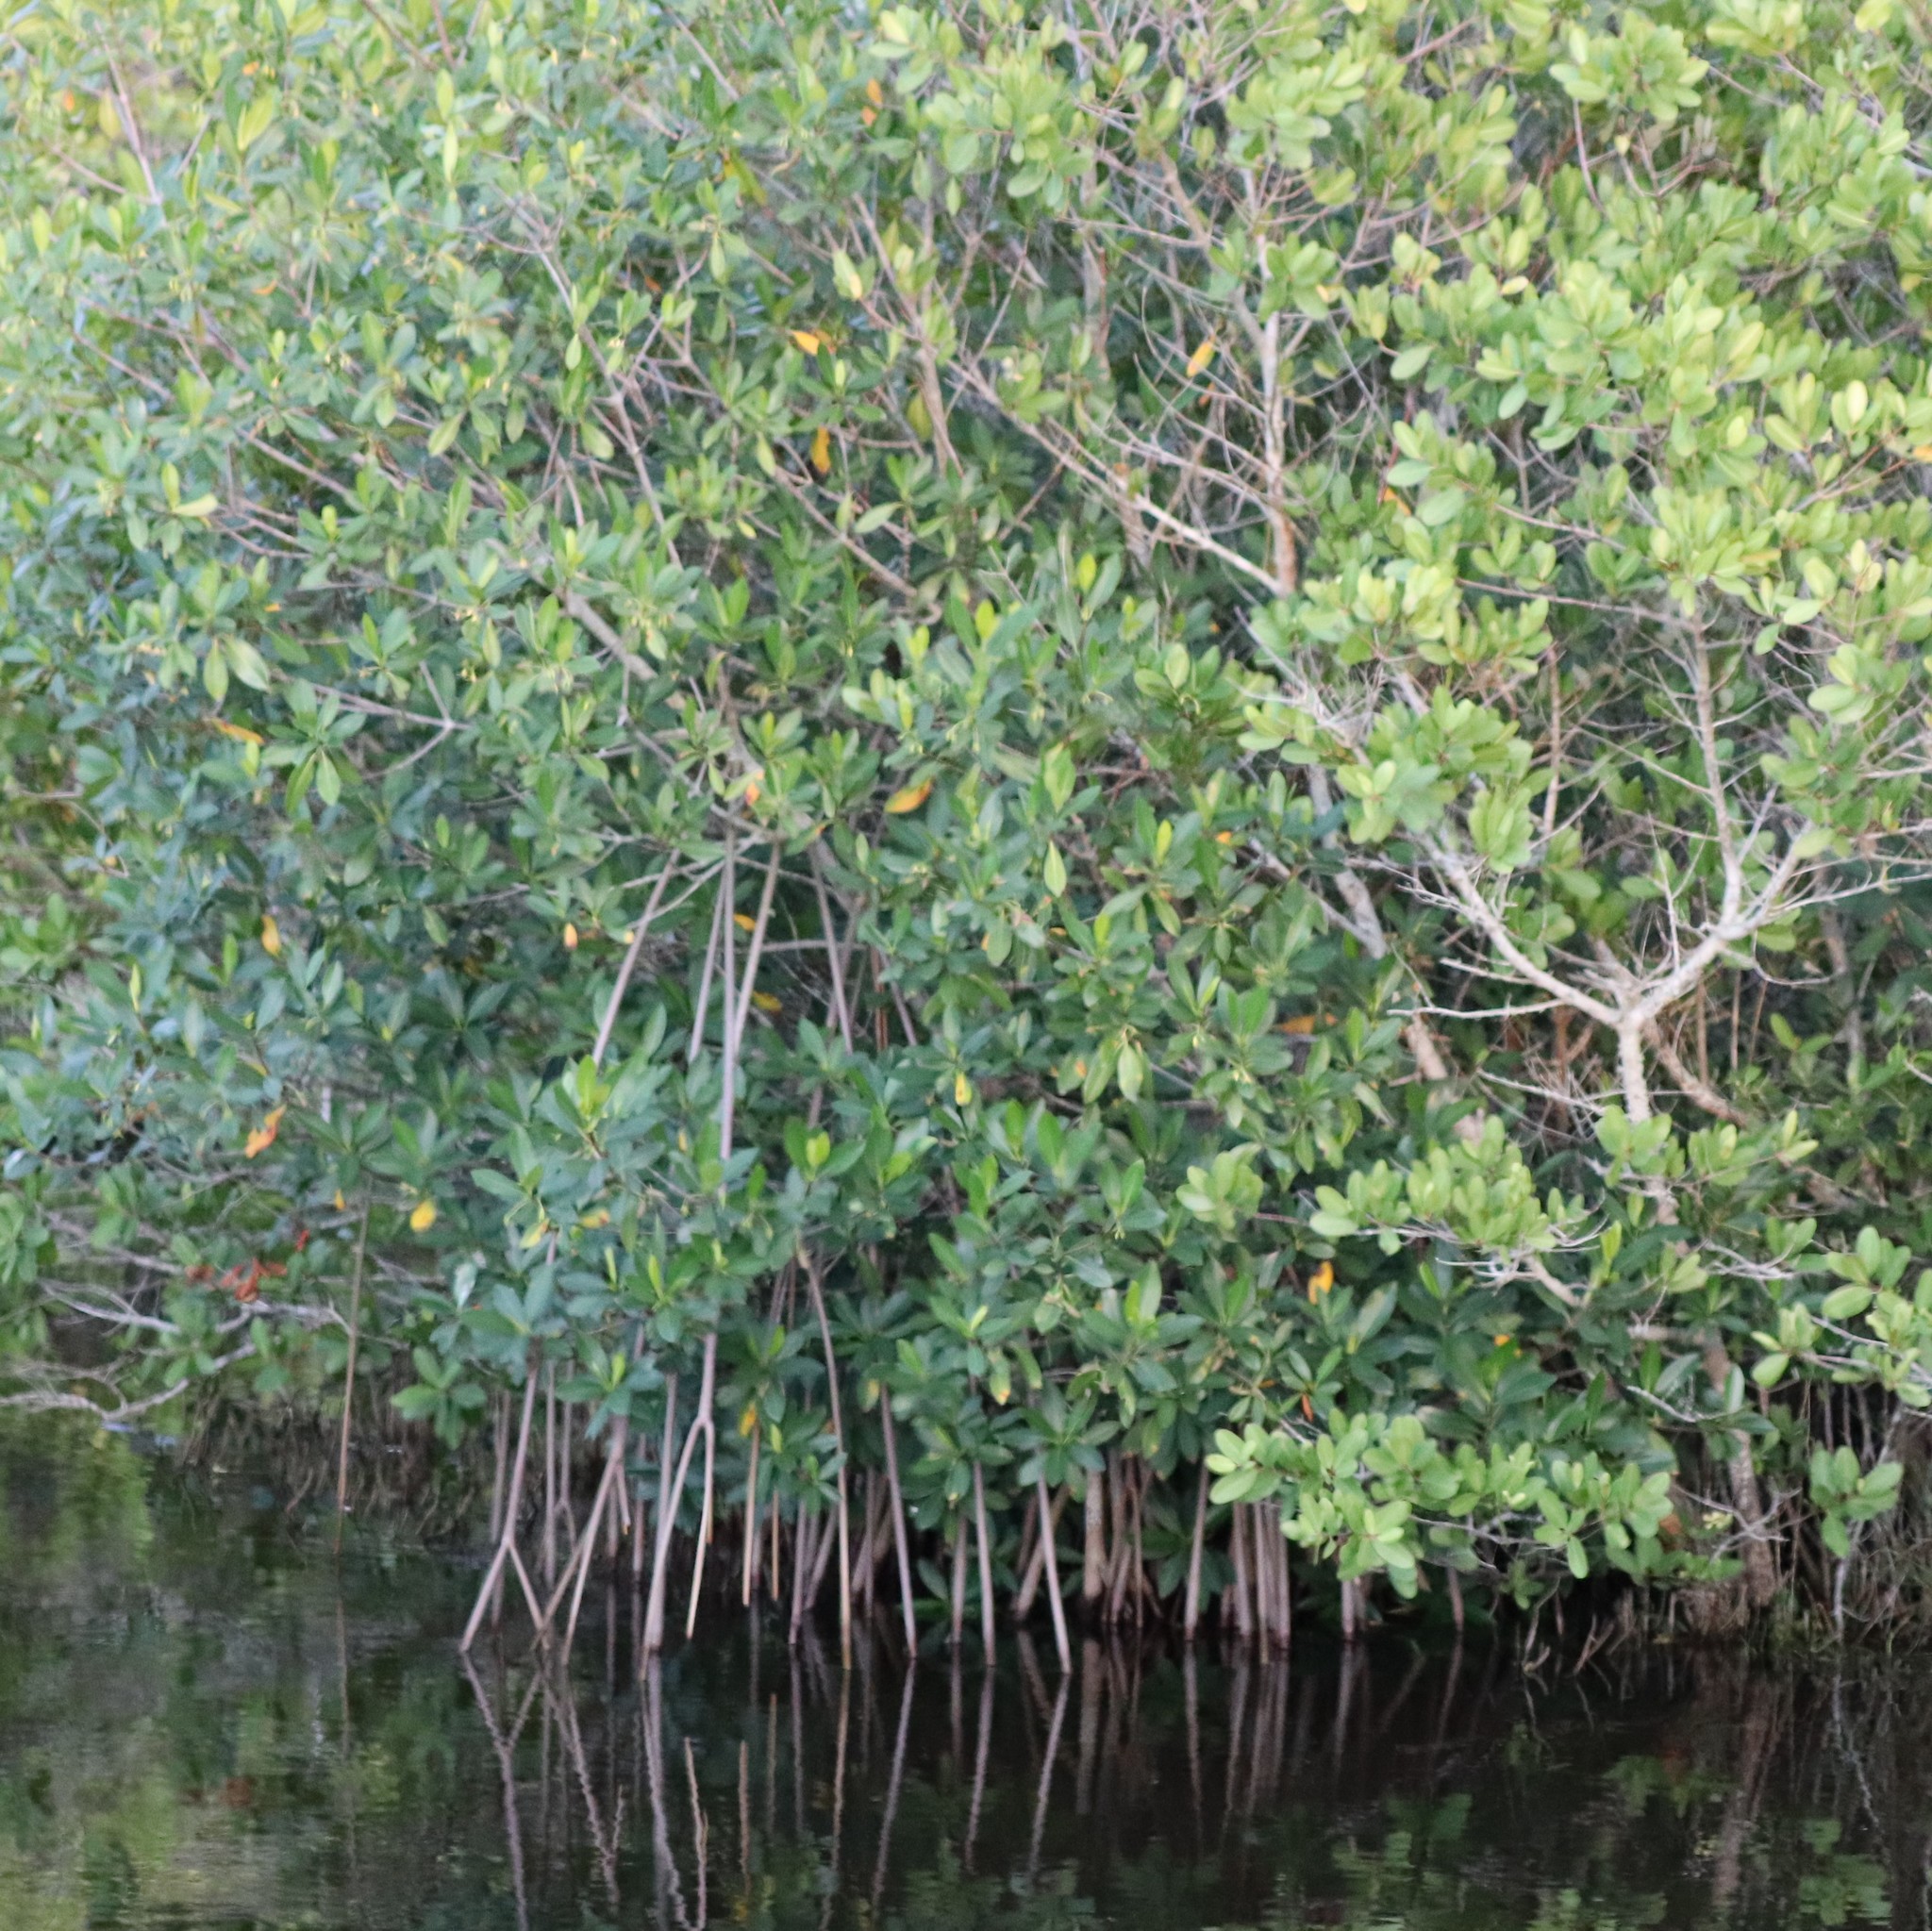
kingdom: Plantae
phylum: Tracheophyta
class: Magnoliopsida
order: Malpighiales
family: Rhizophoraceae
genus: Rhizophora
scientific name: Rhizophora mangle
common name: Red mangrove
